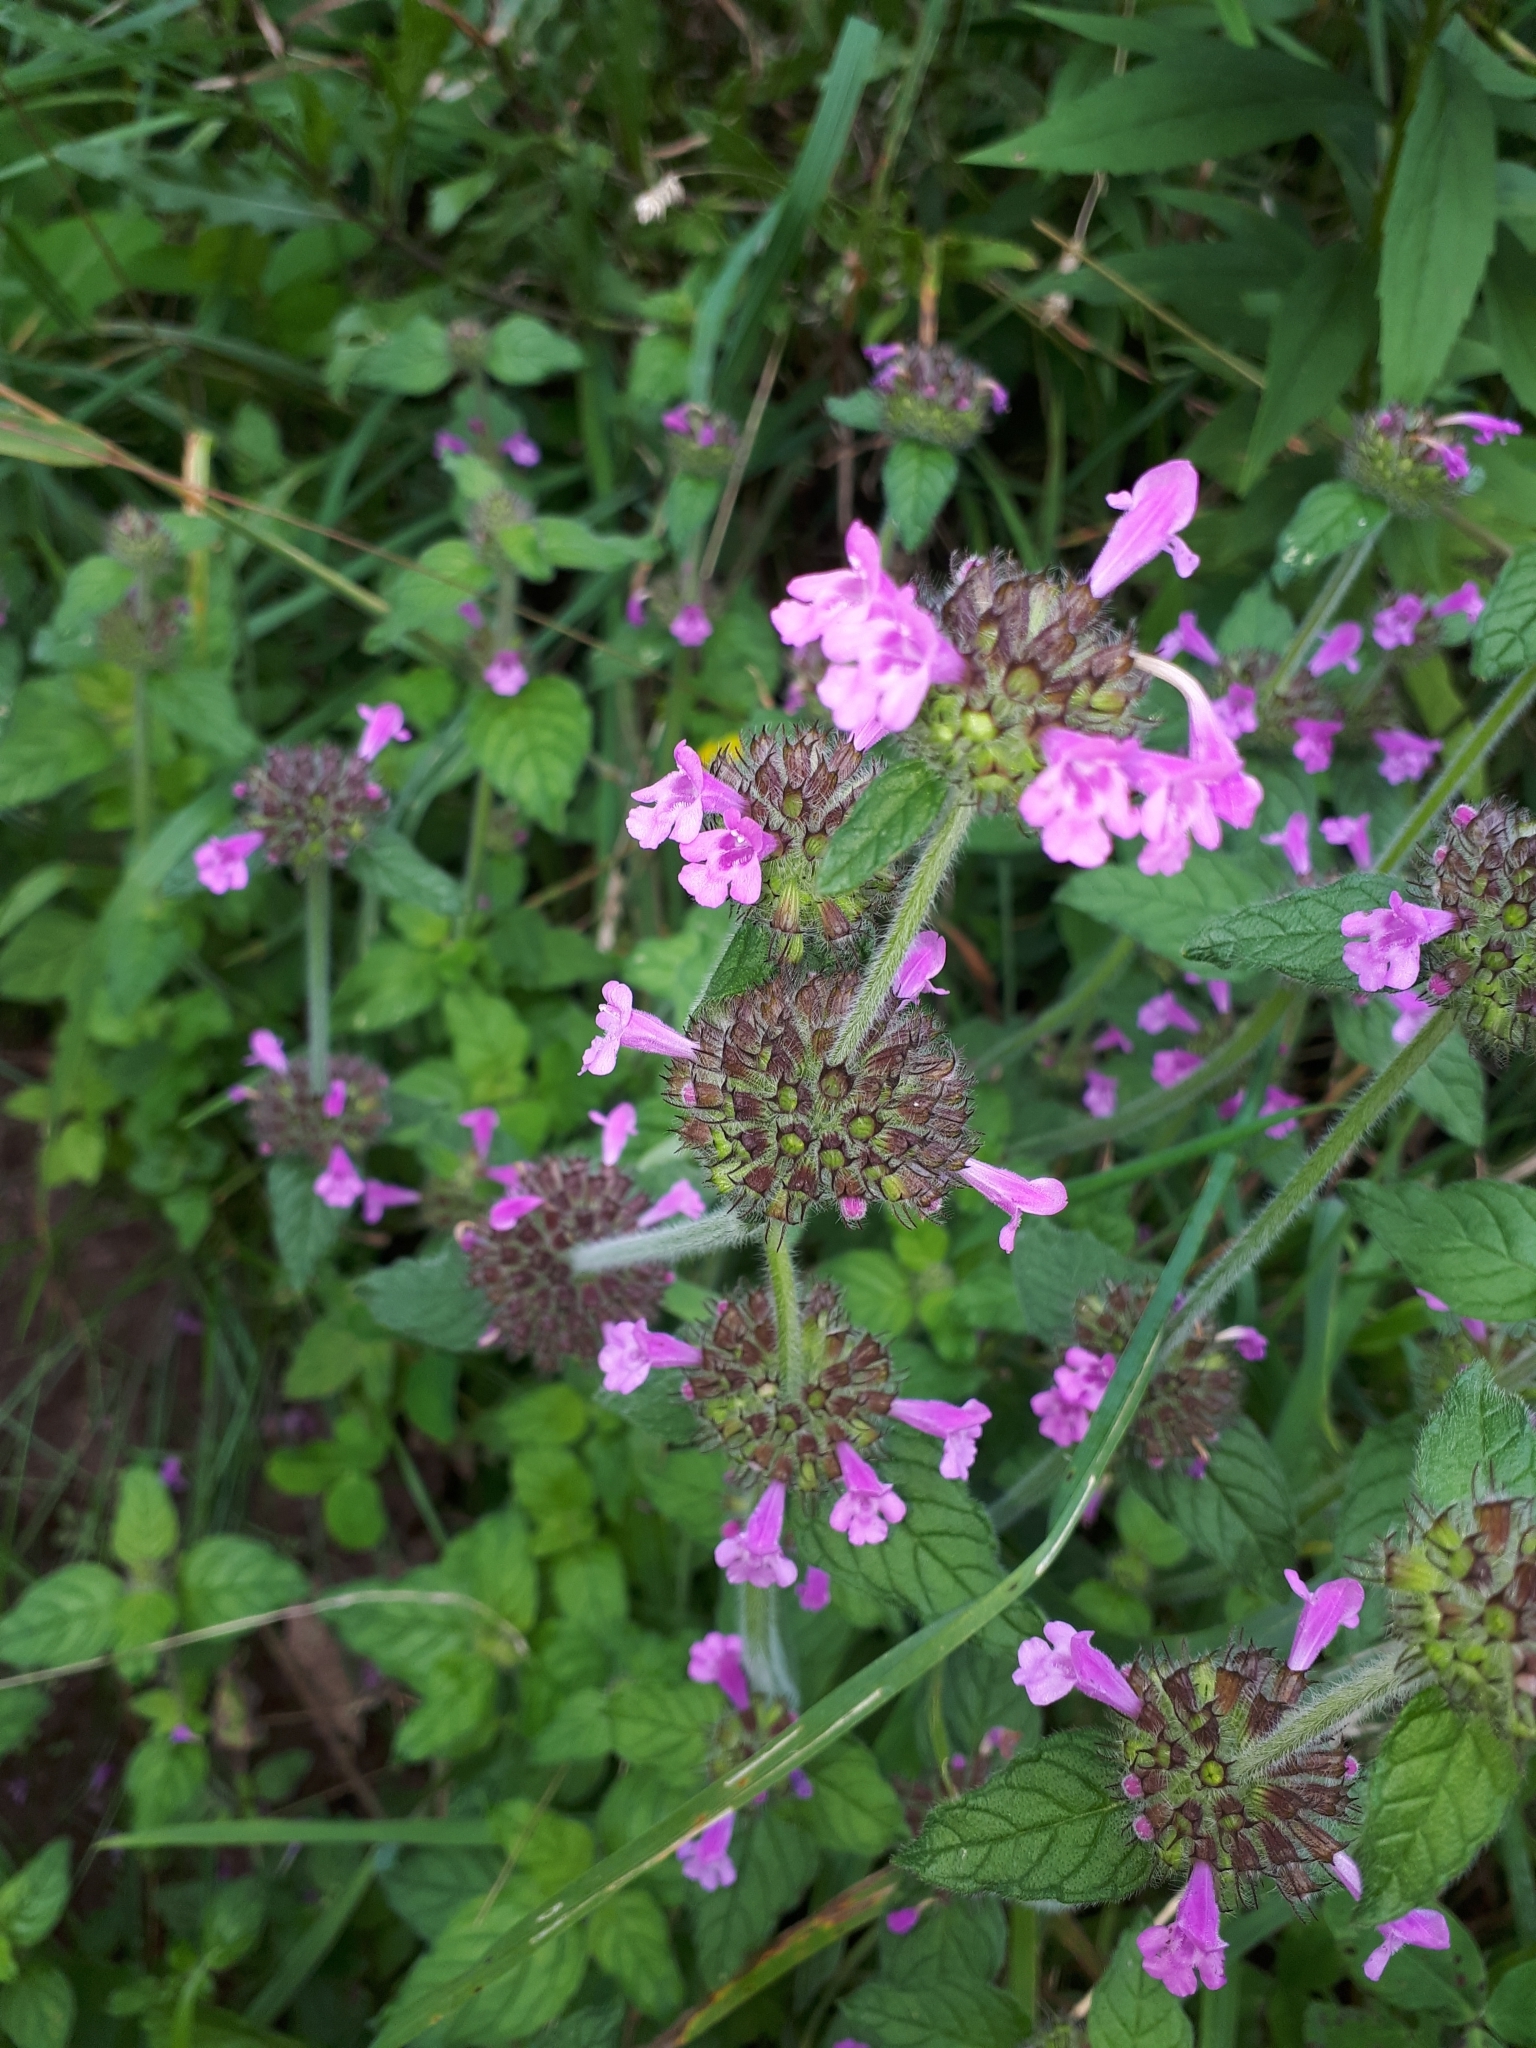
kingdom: Plantae
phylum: Tracheophyta
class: Magnoliopsida
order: Lamiales
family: Lamiaceae
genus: Clinopodium
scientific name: Clinopodium vulgare
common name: Wild basil
